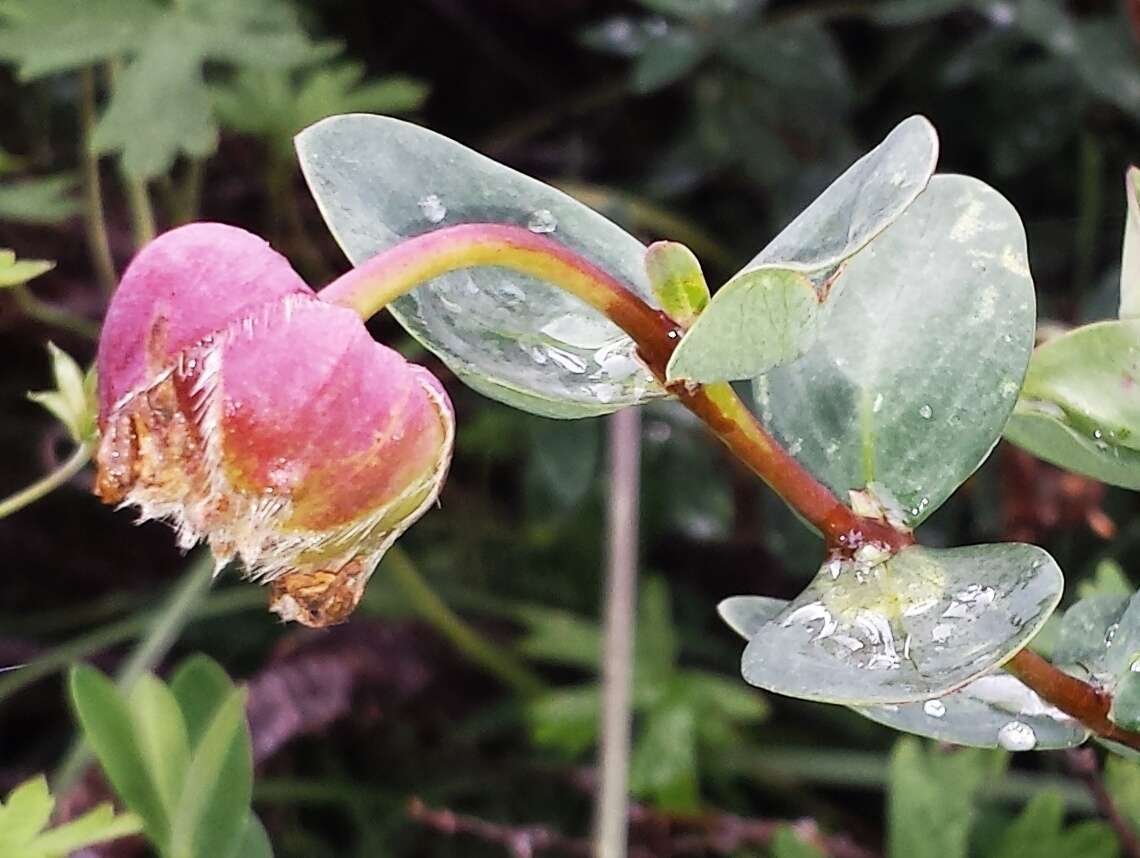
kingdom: Plantae
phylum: Tracheophyta
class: Magnoliopsida
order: Malvales
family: Thymelaeaceae
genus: Pimelea
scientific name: Pimelea ligustrina
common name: Tall riceflower
